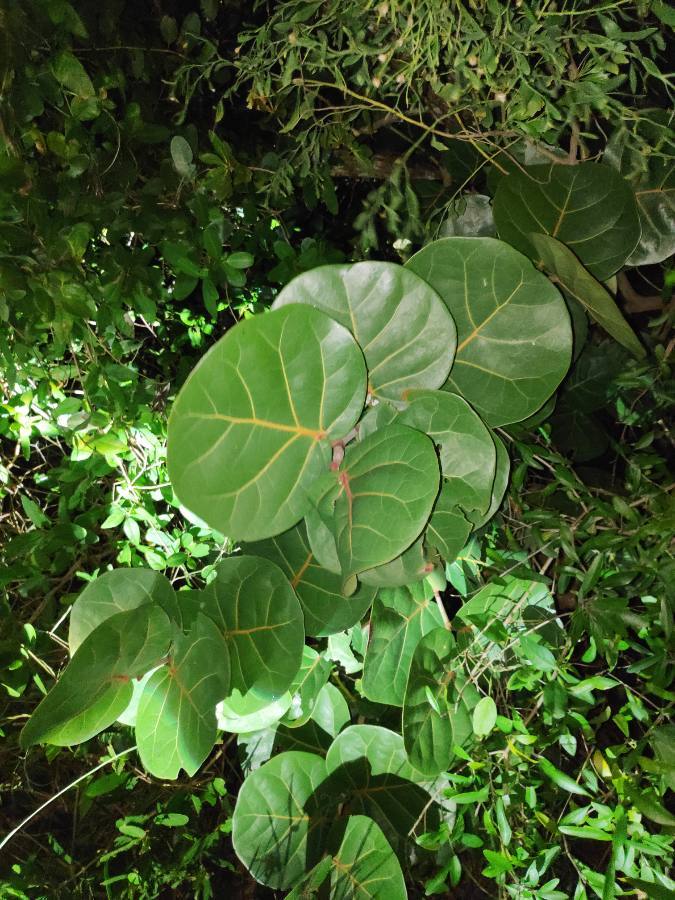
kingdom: Plantae
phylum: Tracheophyta
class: Magnoliopsida
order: Caryophyllales
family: Polygonaceae
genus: Coccoloba
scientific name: Coccoloba uvifera
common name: Seagrape
